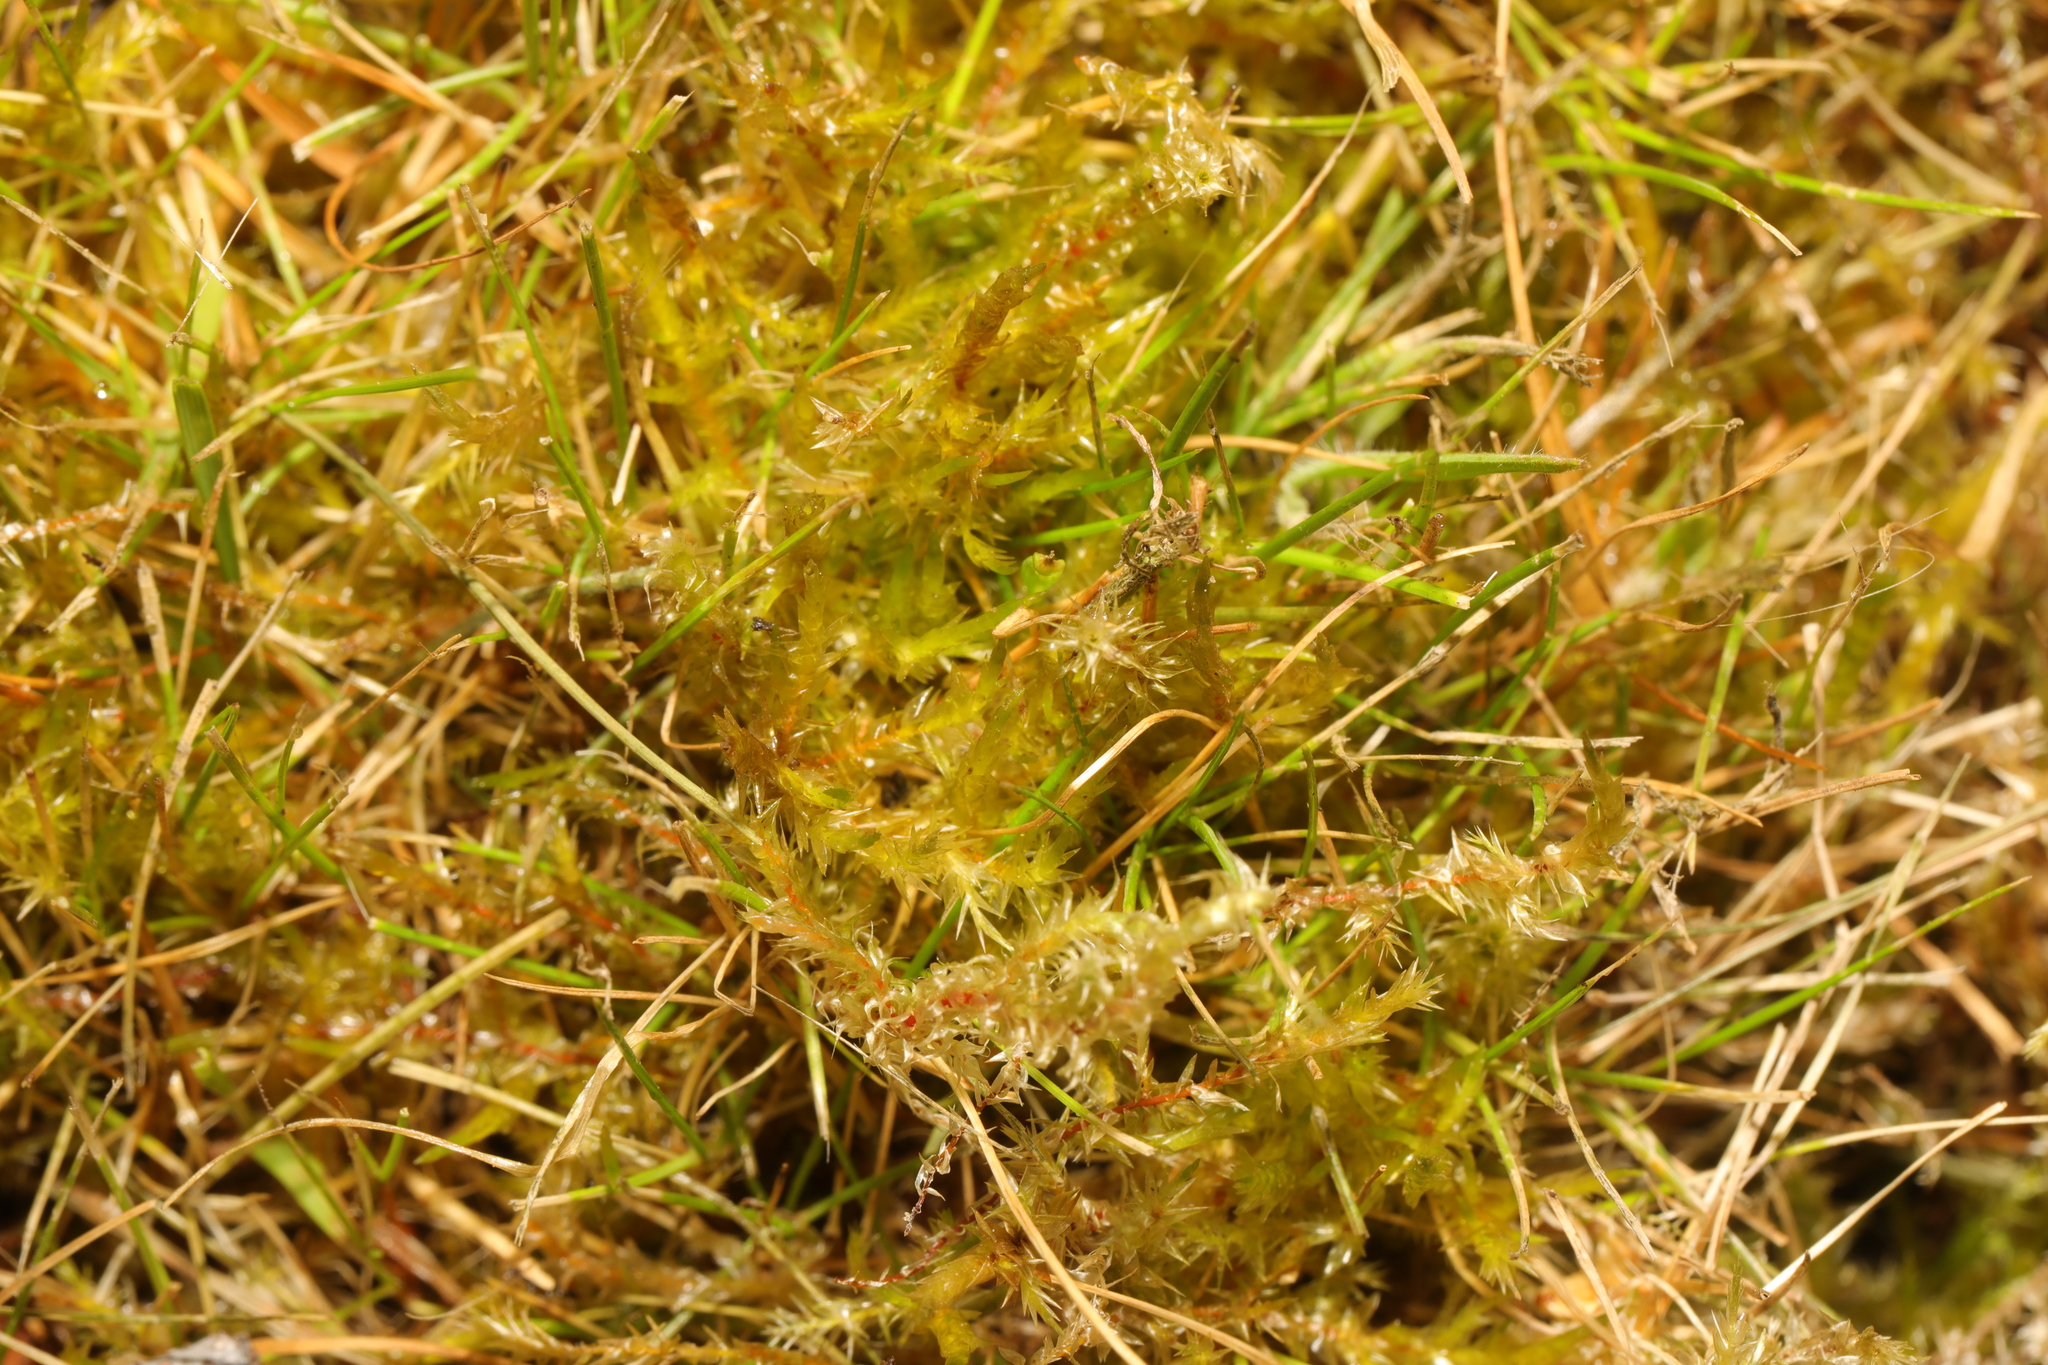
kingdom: Plantae
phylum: Bryophyta
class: Bryopsida
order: Hypnales
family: Hylocomiaceae
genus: Rhytidiadelphus
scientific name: Rhytidiadelphus squarrosus
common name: Springy turf-moss
